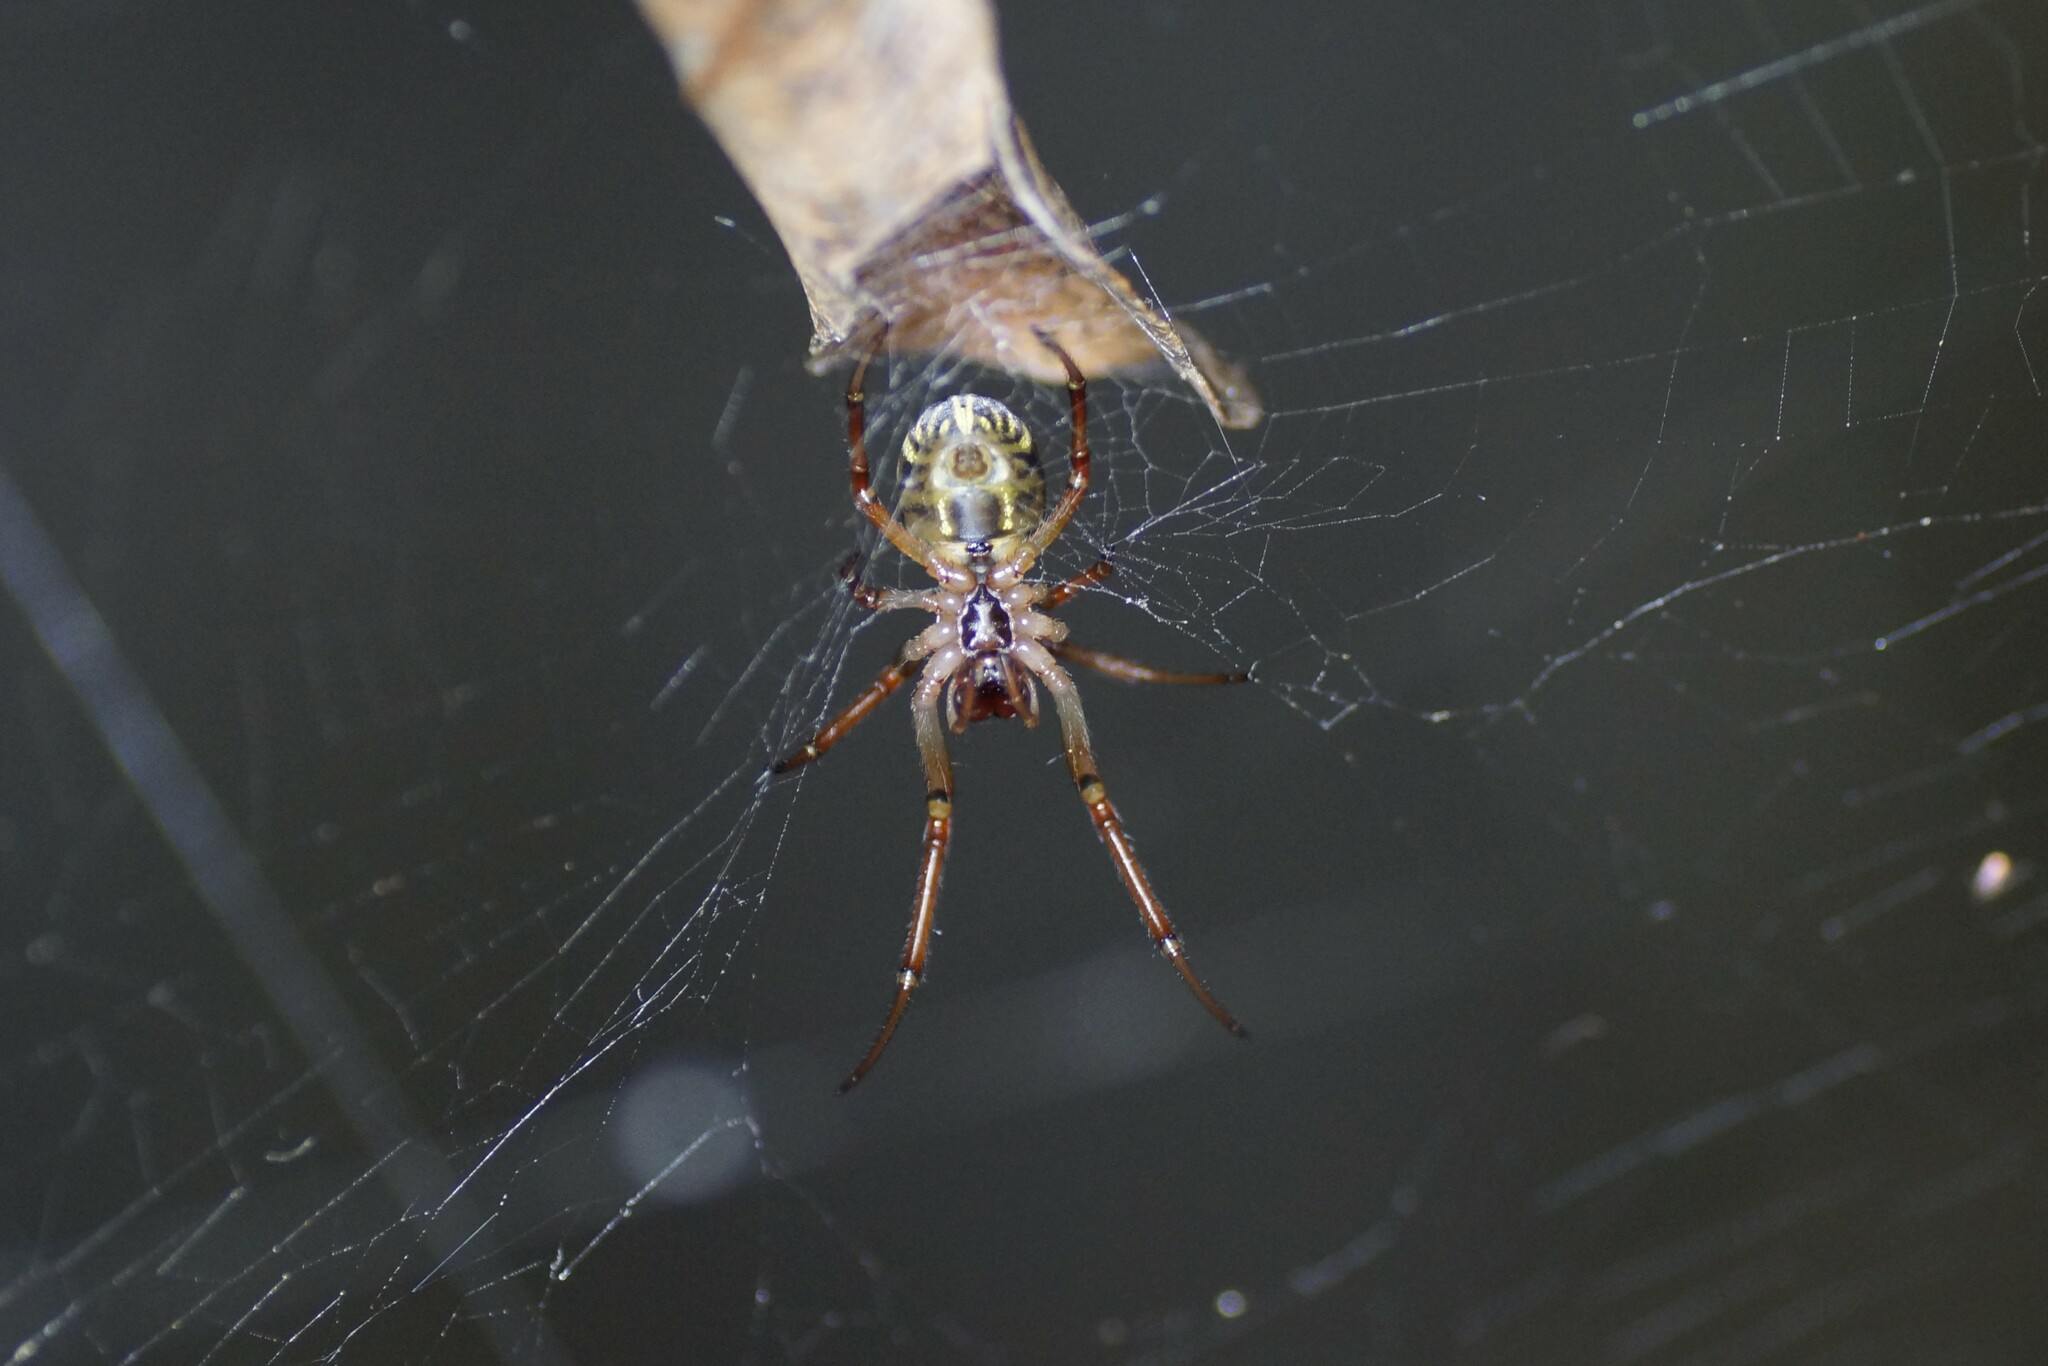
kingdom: Animalia
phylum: Arthropoda
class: Arachnida
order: Araneae
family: Araneidae
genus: Phonognatha
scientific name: Phonognatha graeffei
